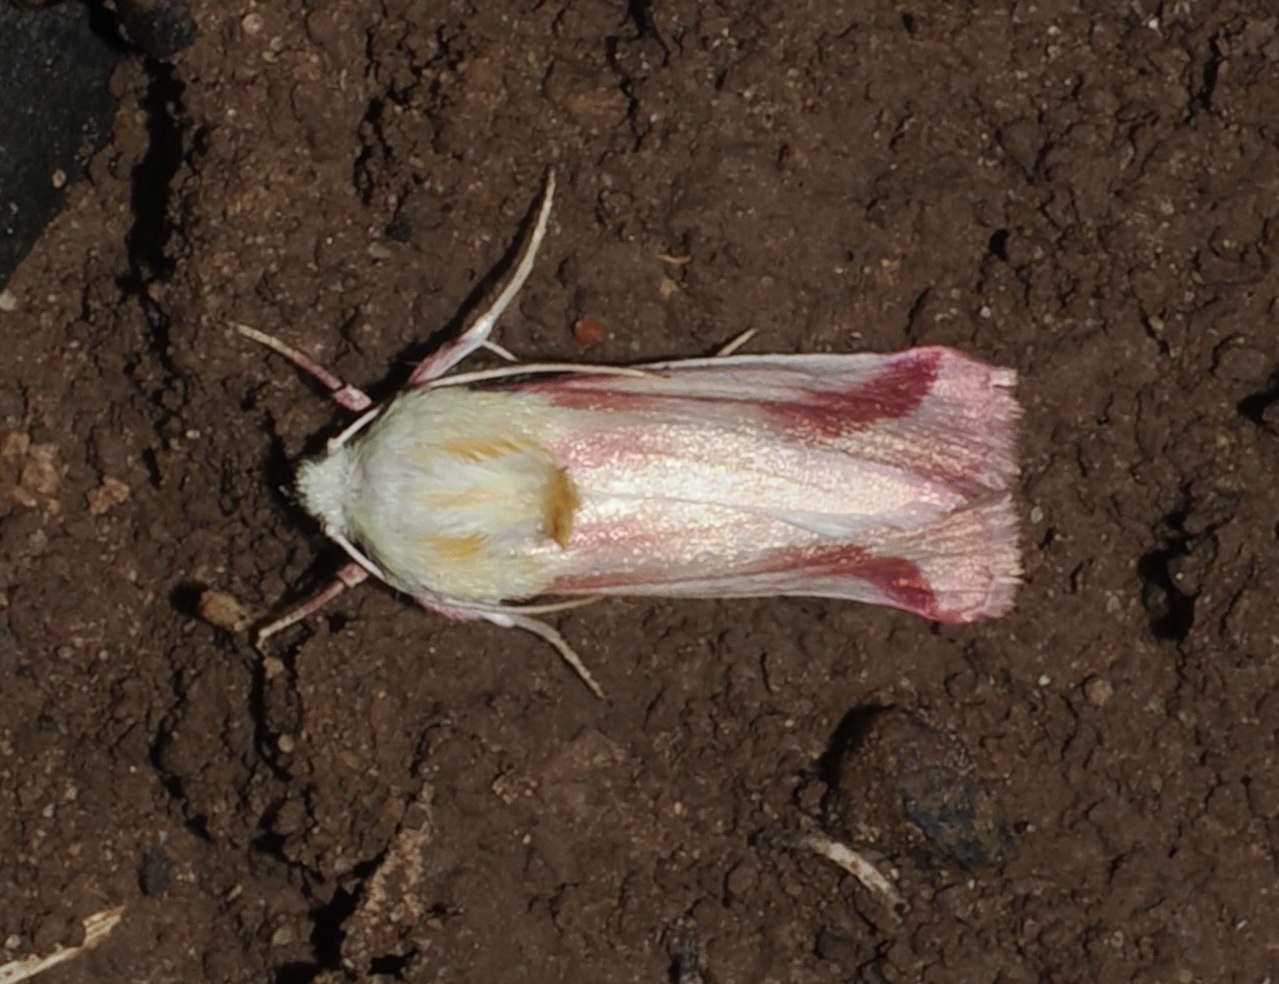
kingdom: Animalia
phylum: Arthropoda
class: Insecta
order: Lepidoptera
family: Noctuidae
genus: Schinia
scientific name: Schinia gaurae
